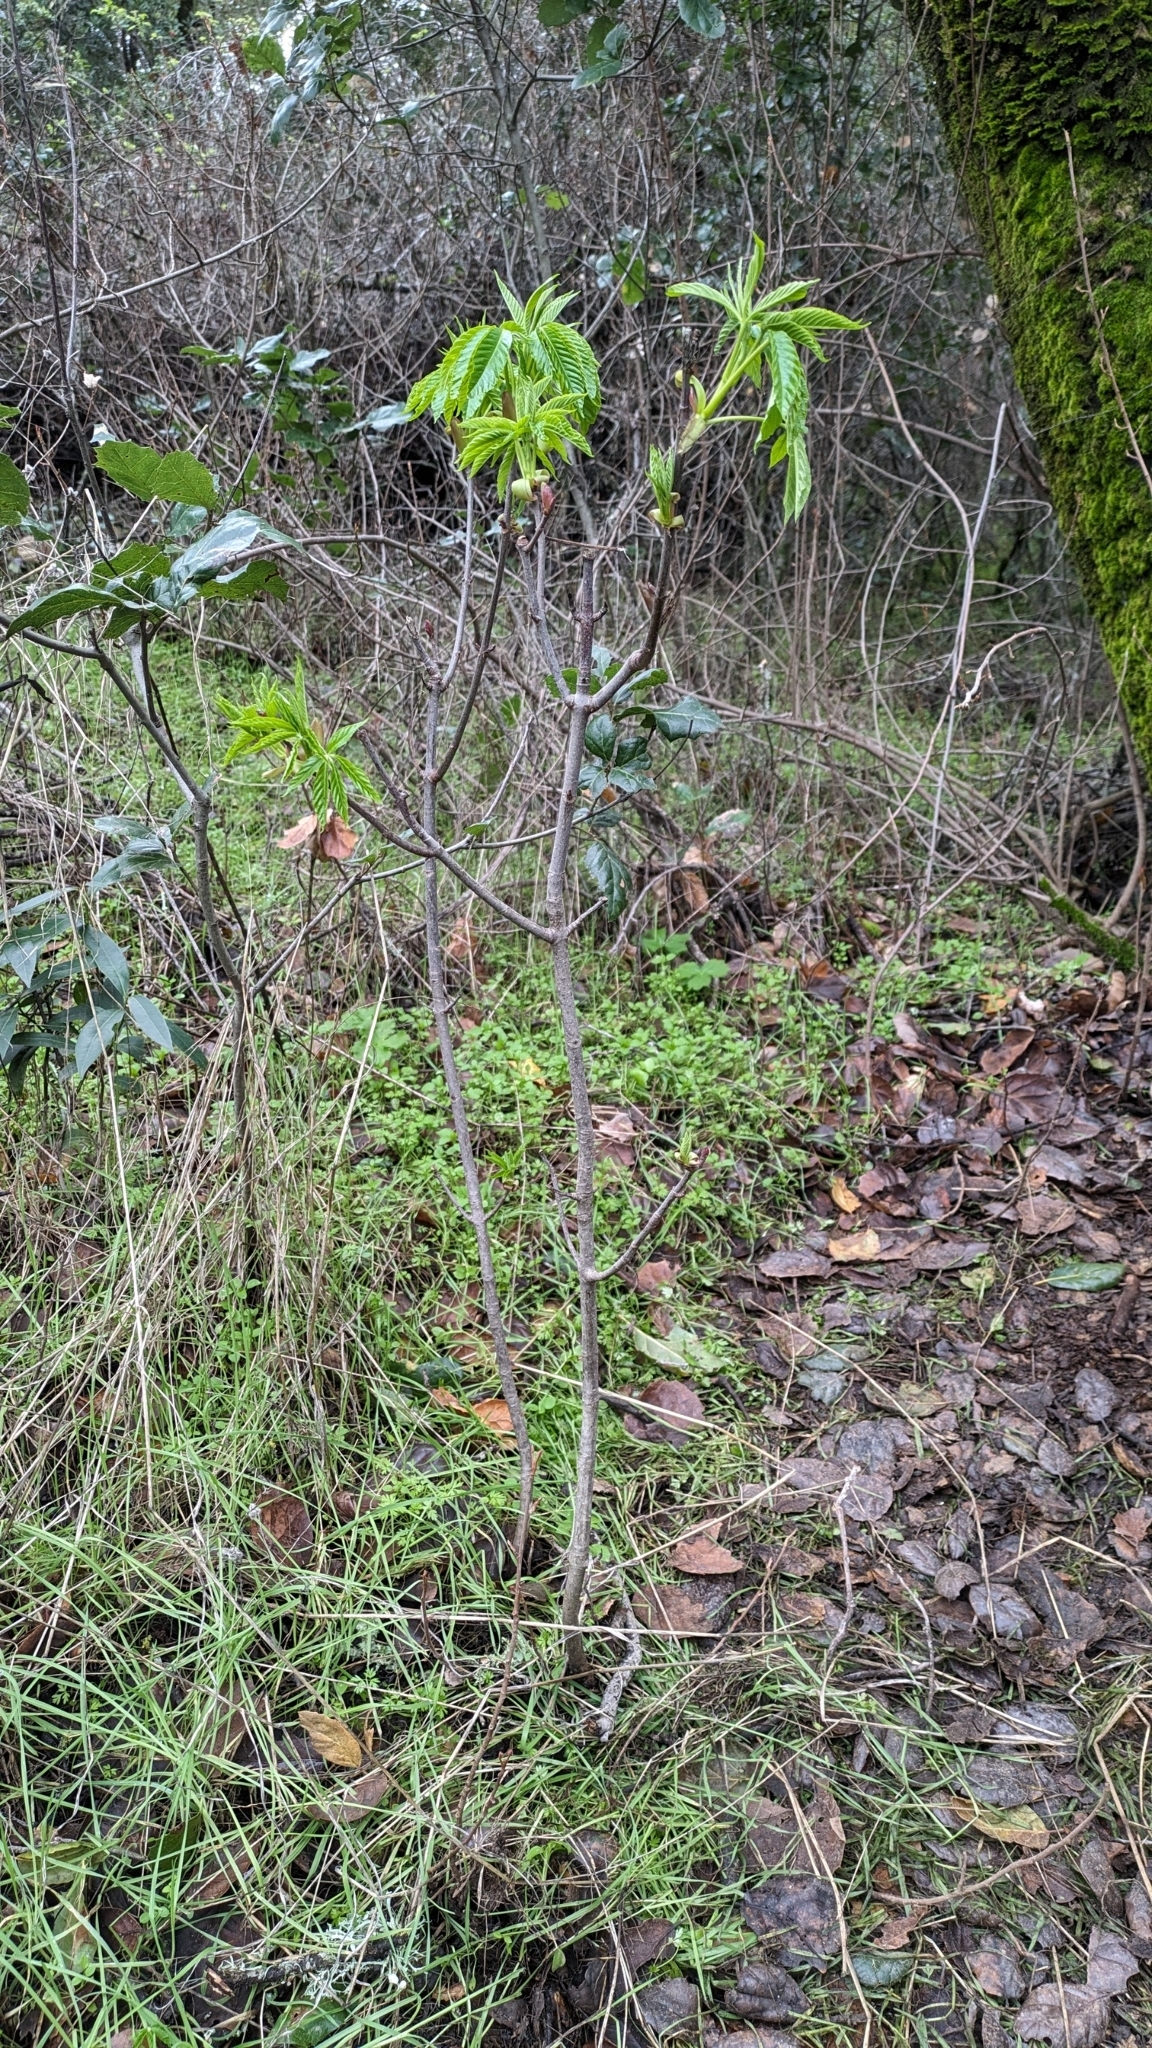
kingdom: Plantae
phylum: Tracheophyta
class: Magnoliopsida
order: Sapindales
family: Sapindaceae
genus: Aesculus
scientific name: Aesculus californica
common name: California buckeye
